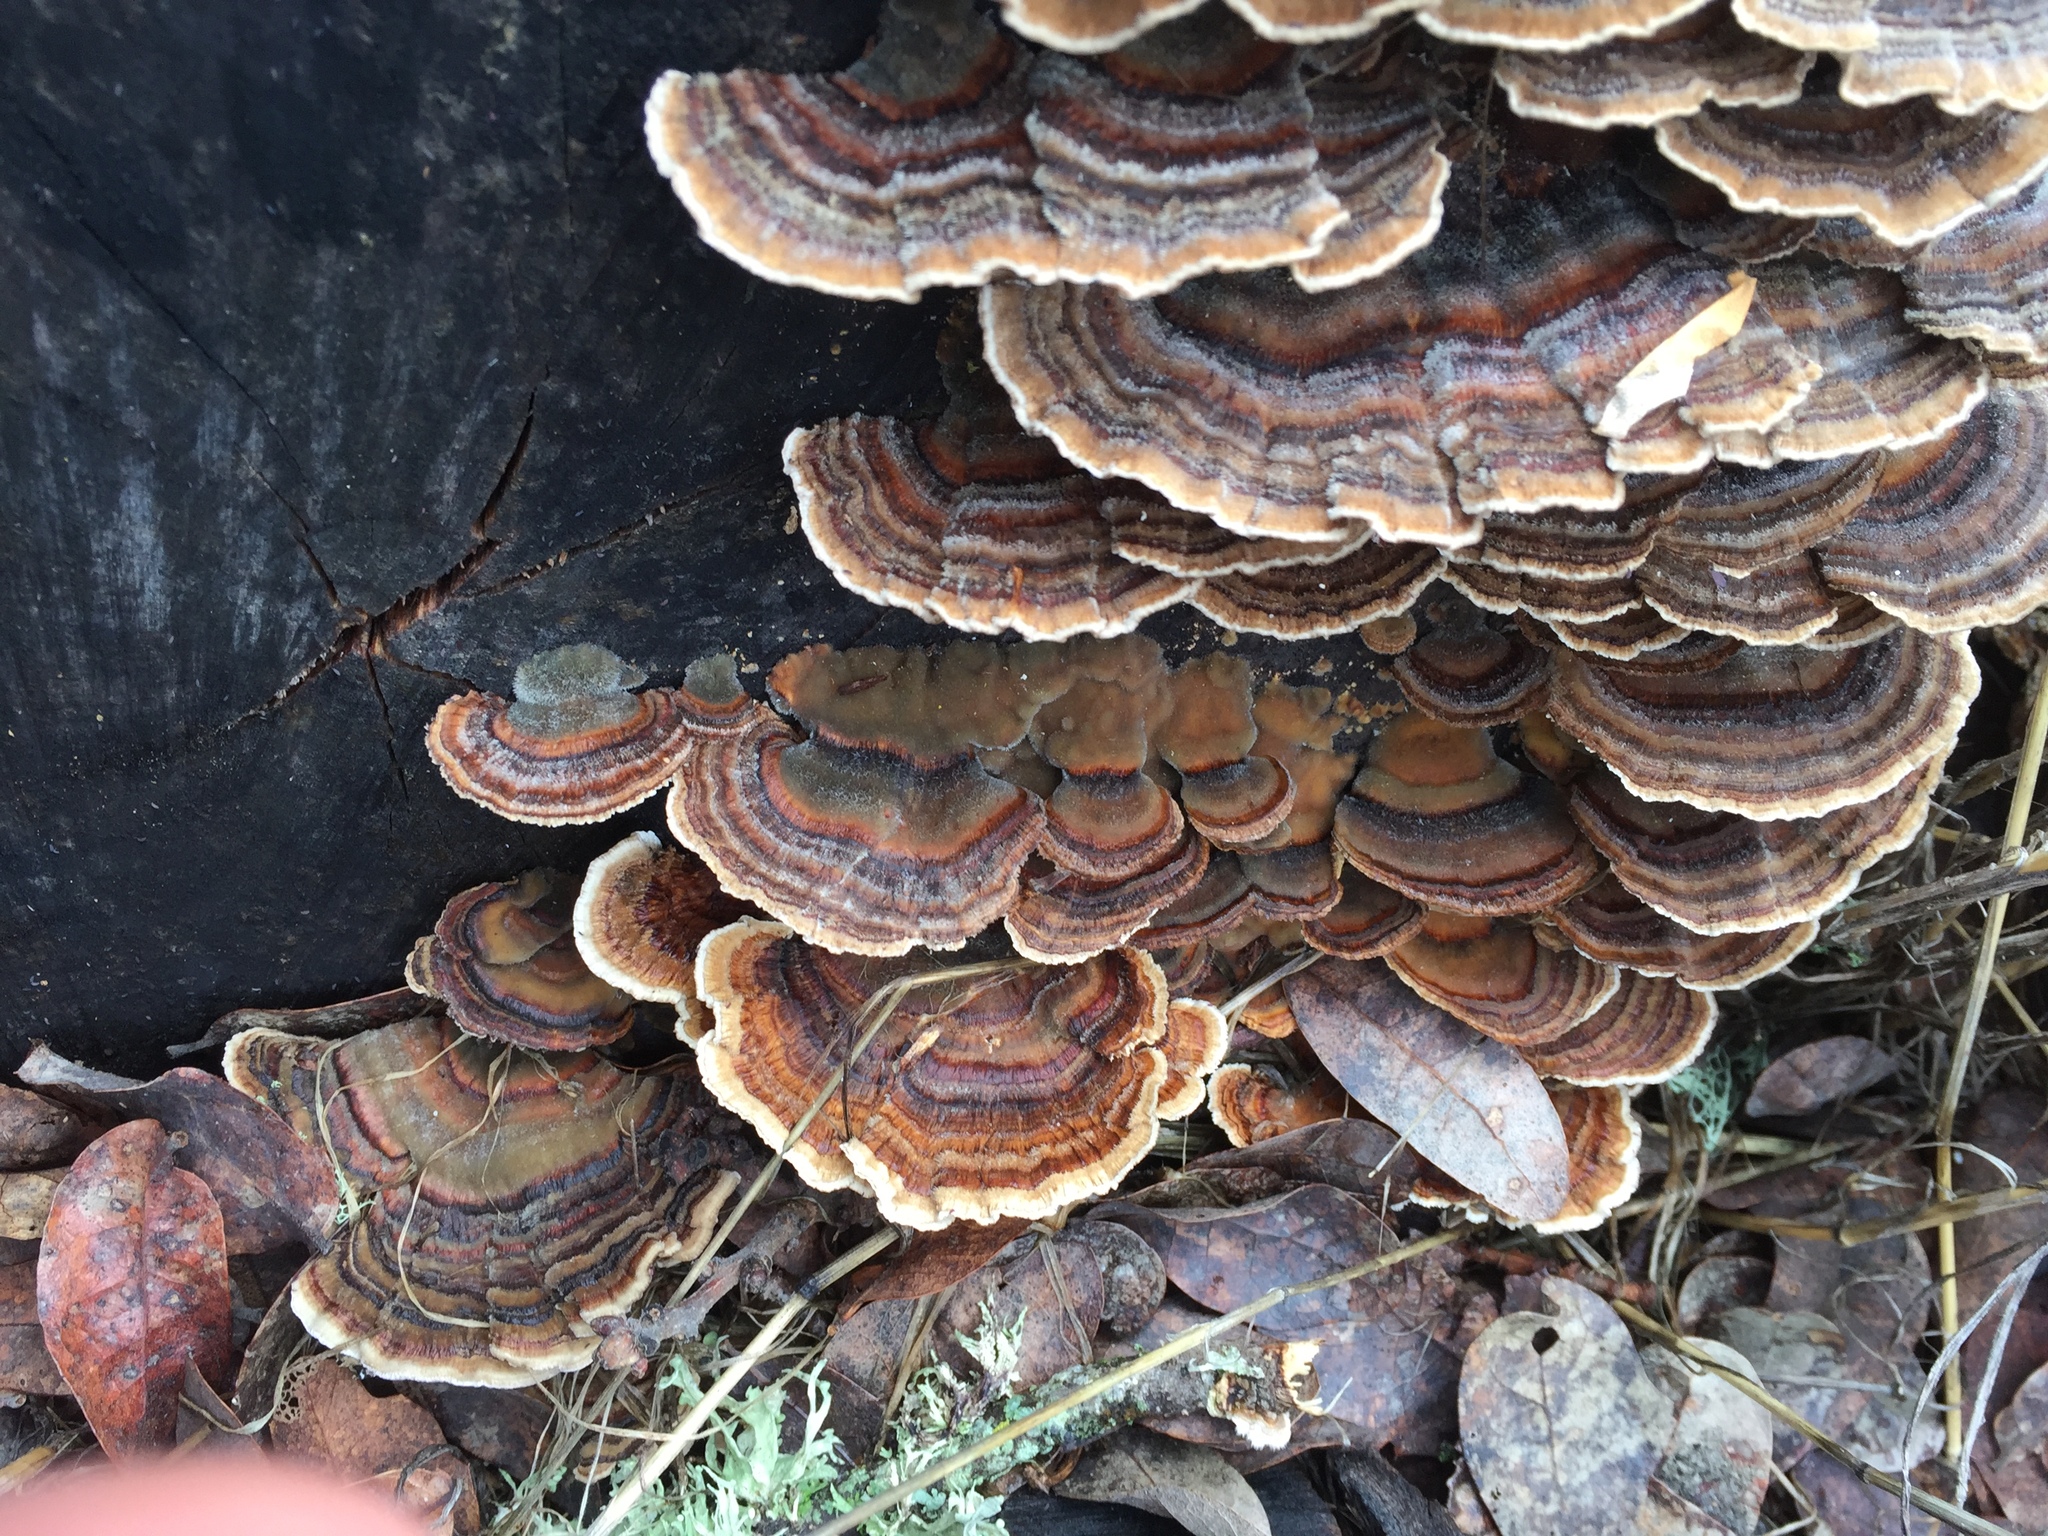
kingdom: Fungi
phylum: Basidiomycota
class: Agaricomycetes
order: Polyporales
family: Polyporaceae
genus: Trametes
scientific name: Trametes versicolor
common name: Turkeytail
